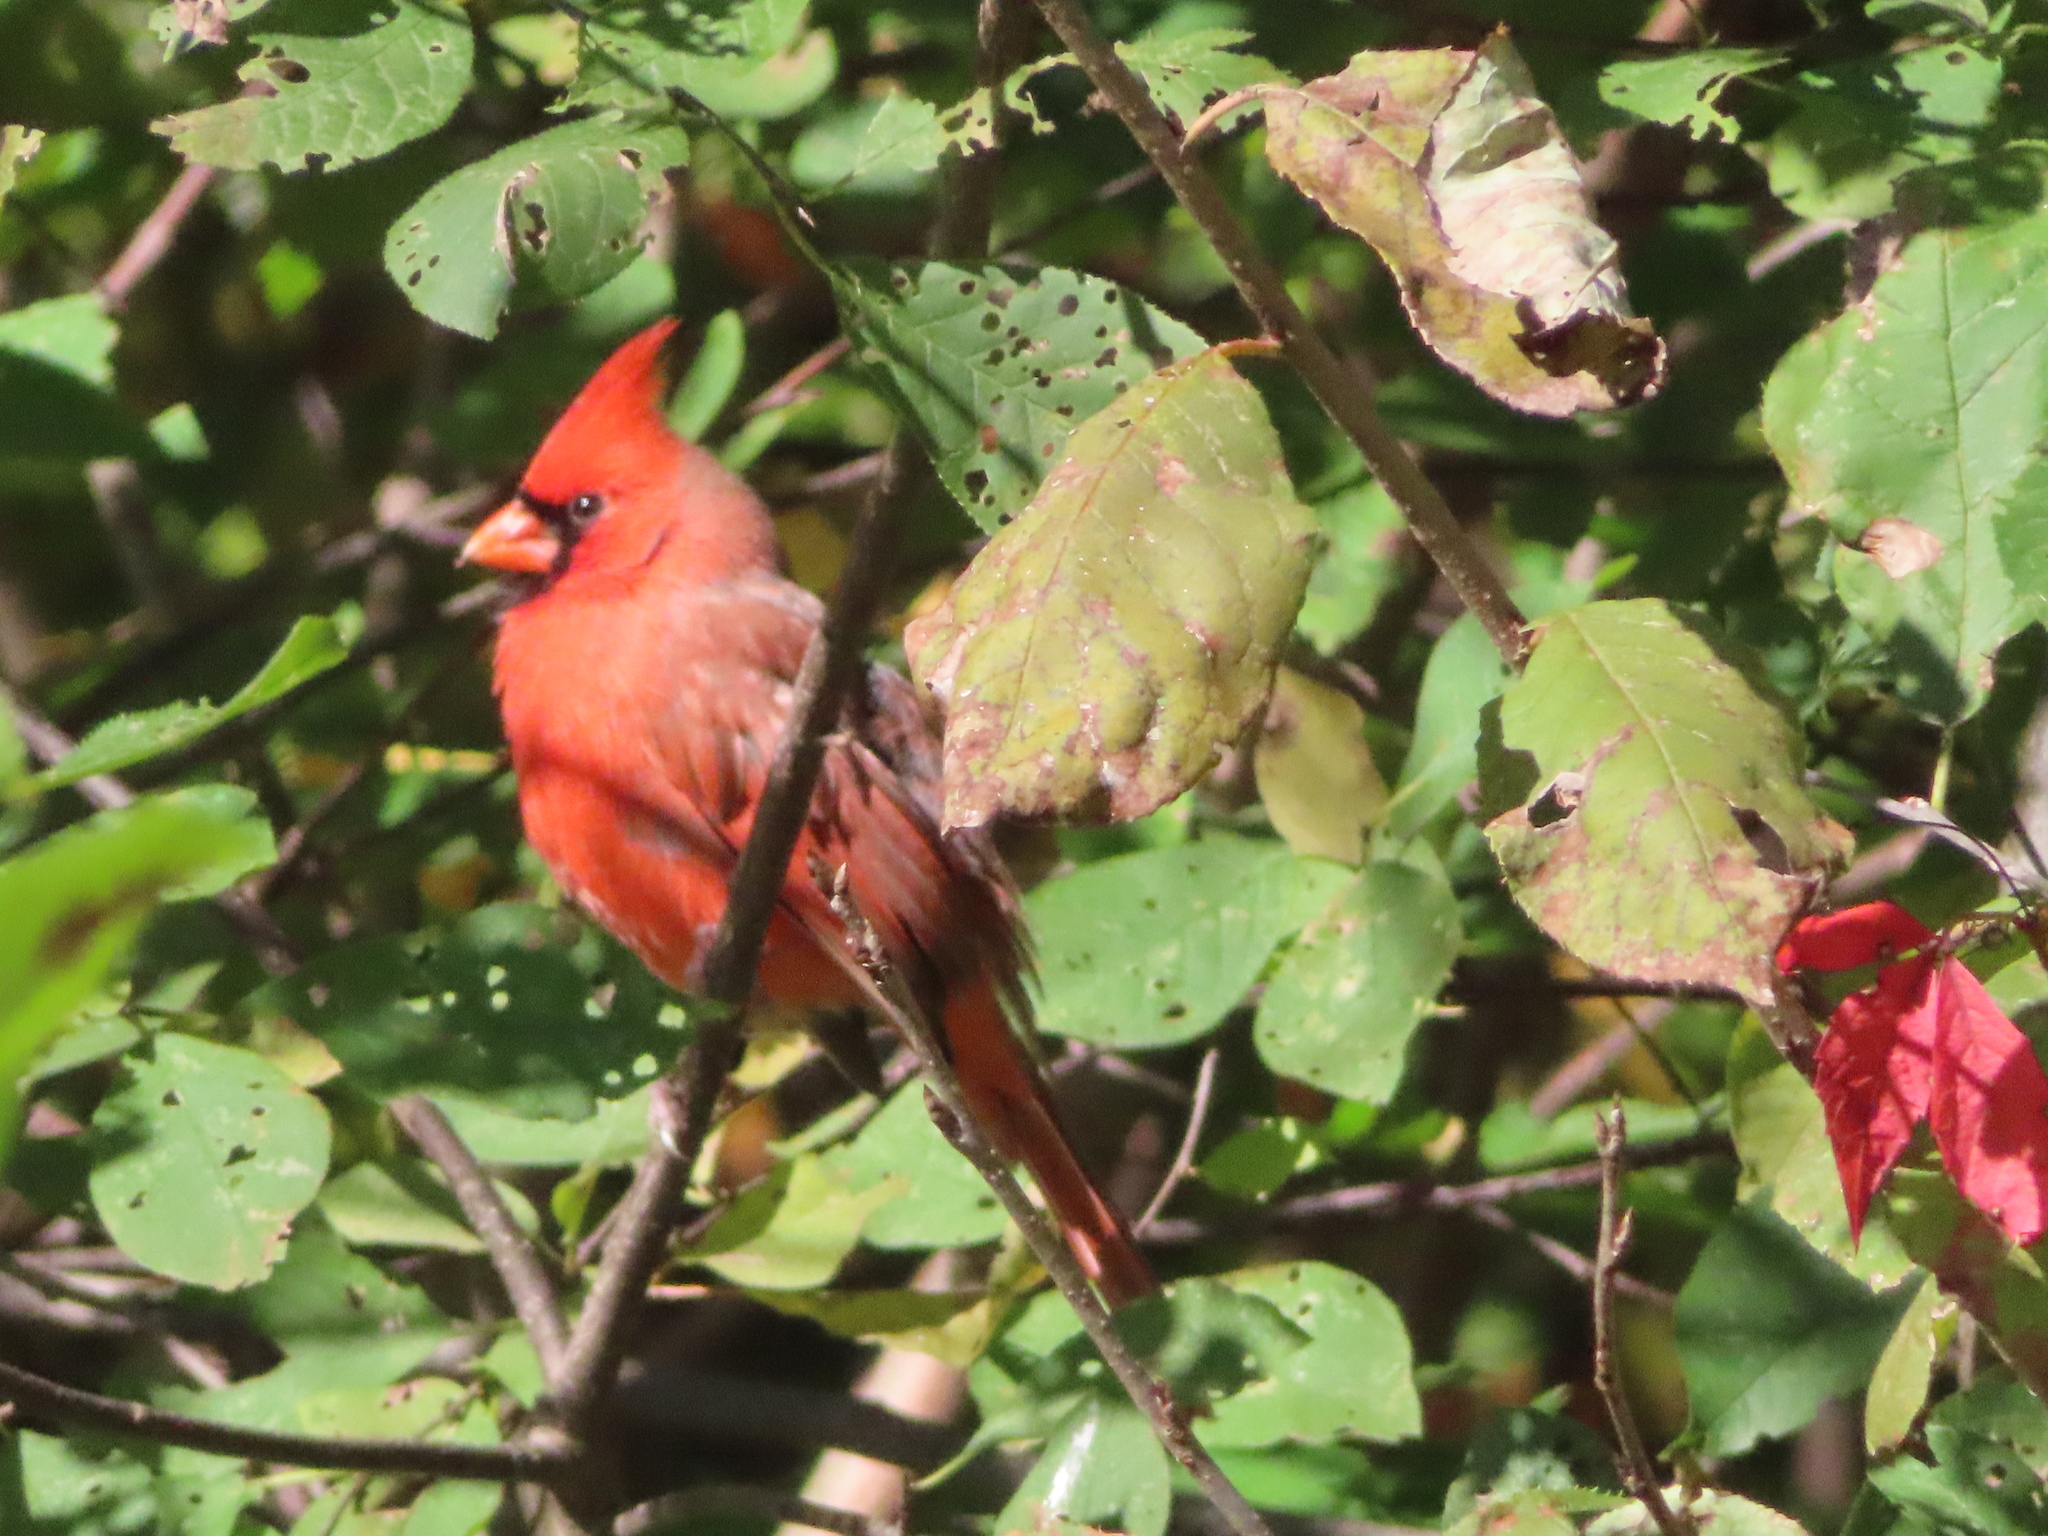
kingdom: Animalia
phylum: Chordata
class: Aves
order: Passeriformes
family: Cardinalidae
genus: Cardinalis
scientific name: Cardinalis cardinalis
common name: Northern cardinal
